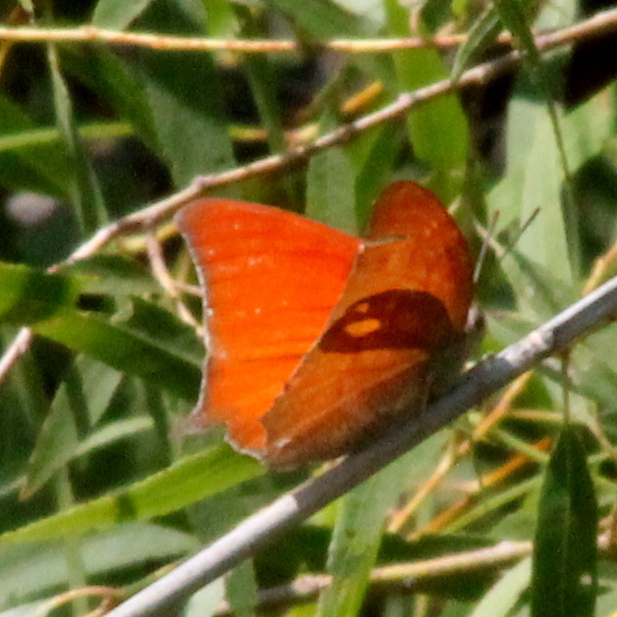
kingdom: Animalia
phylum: Arthropoda
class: Insecta
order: Lepidoptera
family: Nymphalidae
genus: Anaea
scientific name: Anaea andria
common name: Goatweed leafwing
